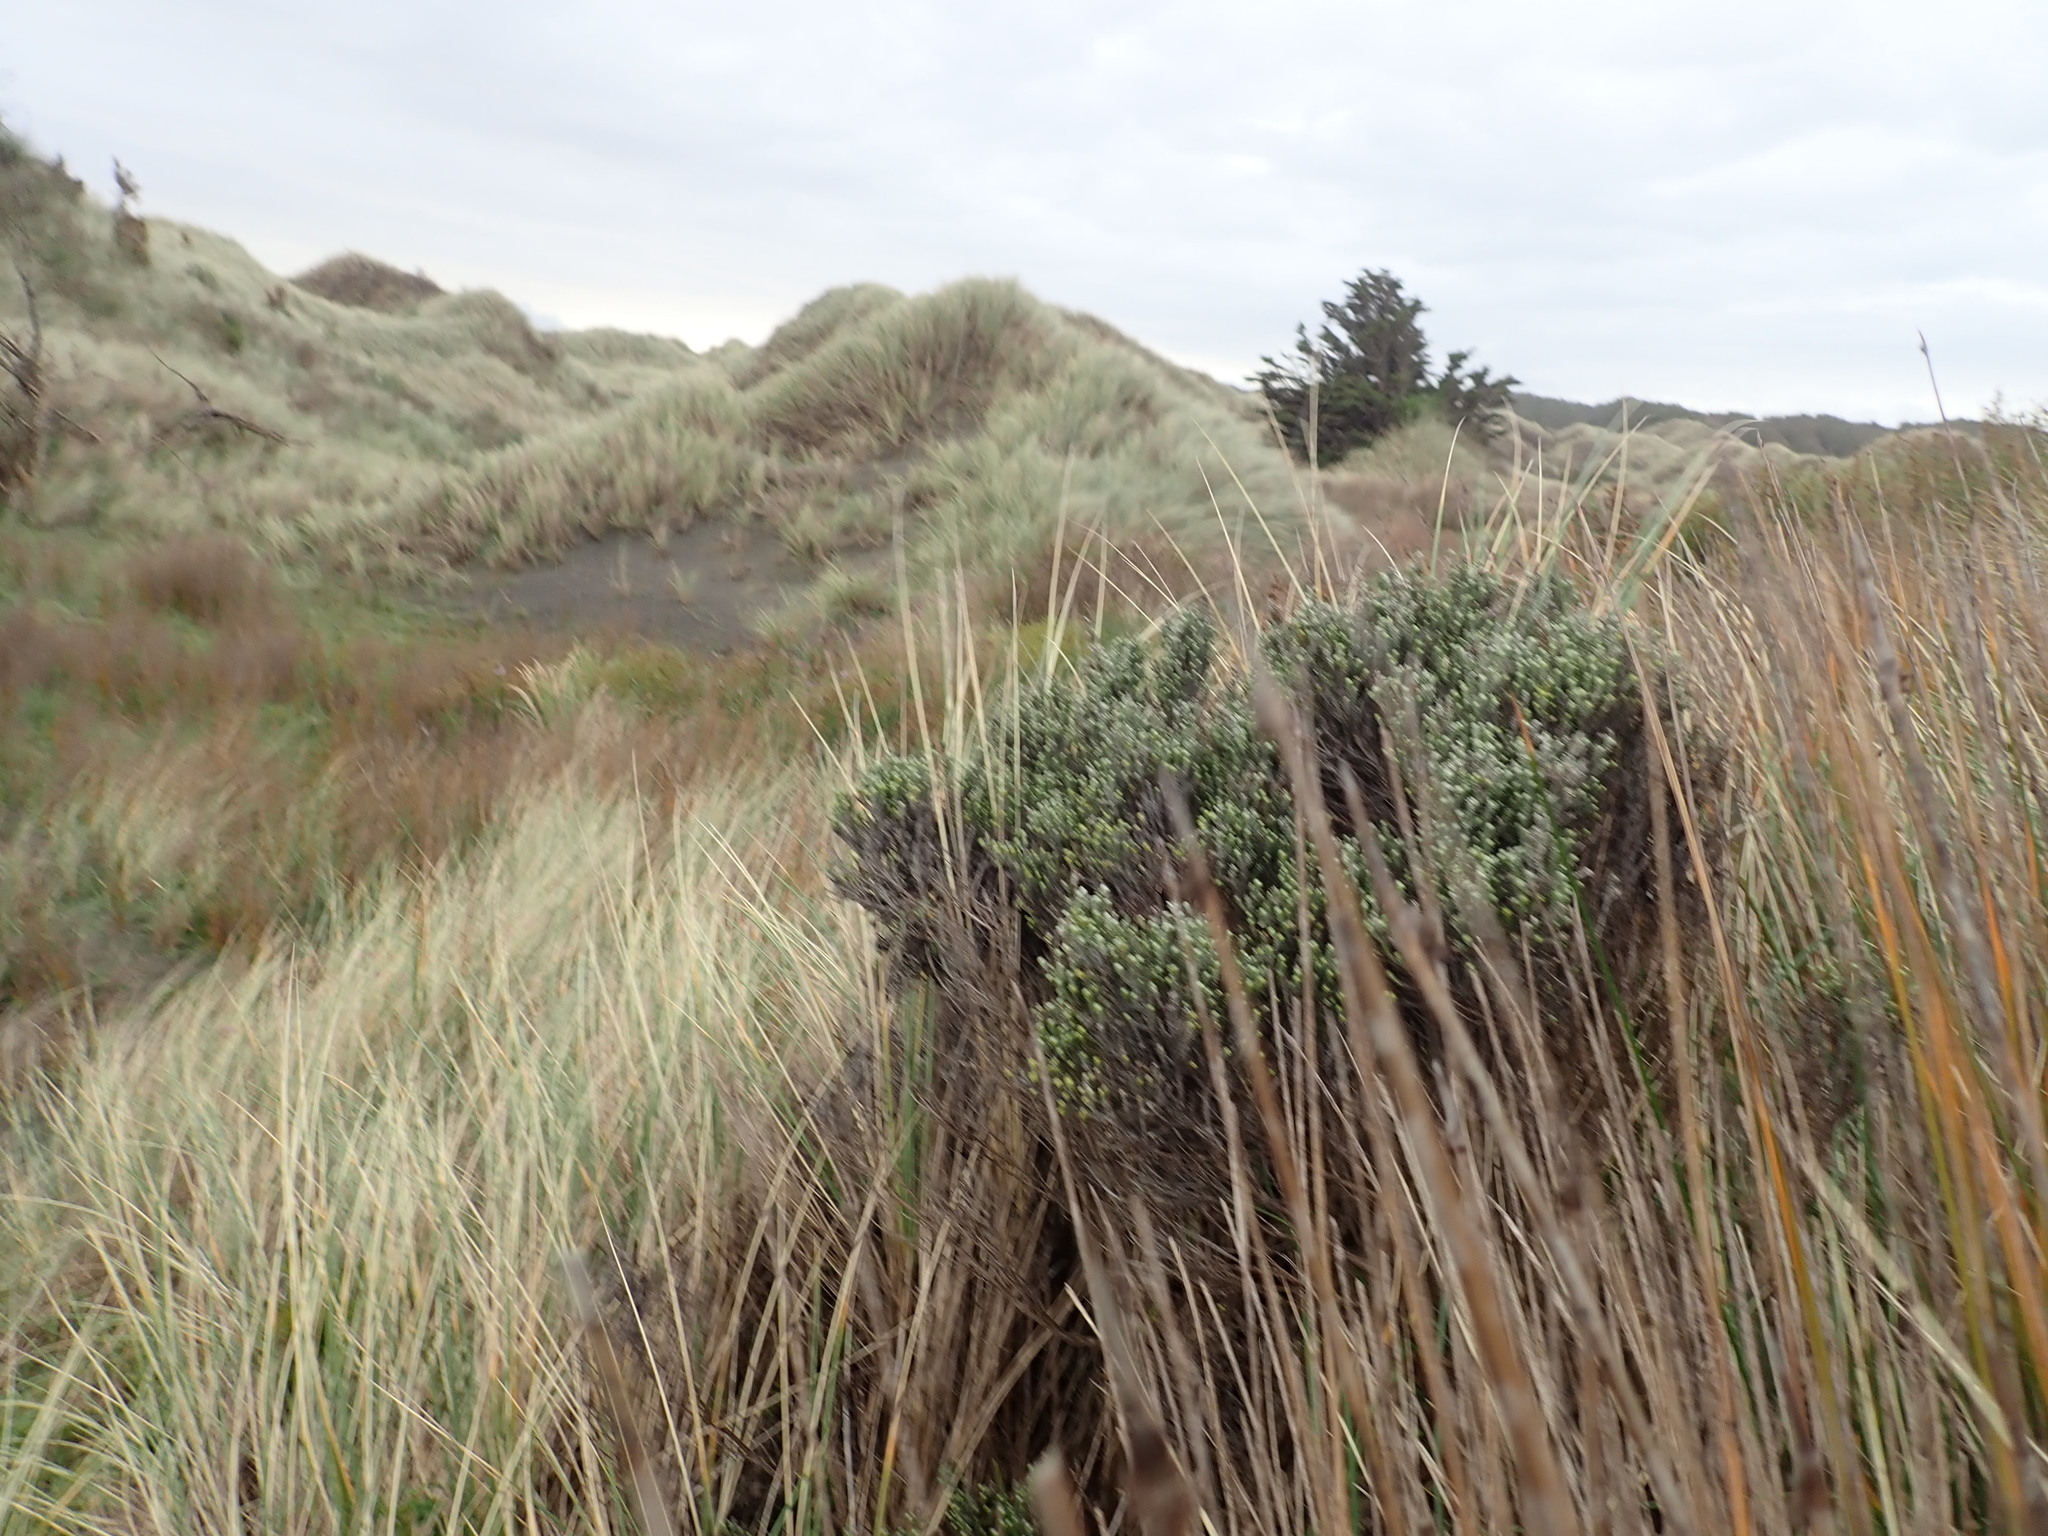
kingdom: Plantae
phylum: Tracheophyta
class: Magnoliopsida
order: Asterales
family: Asteraceae
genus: Ozothamnus
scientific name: Ozothamnus leptophyllus
